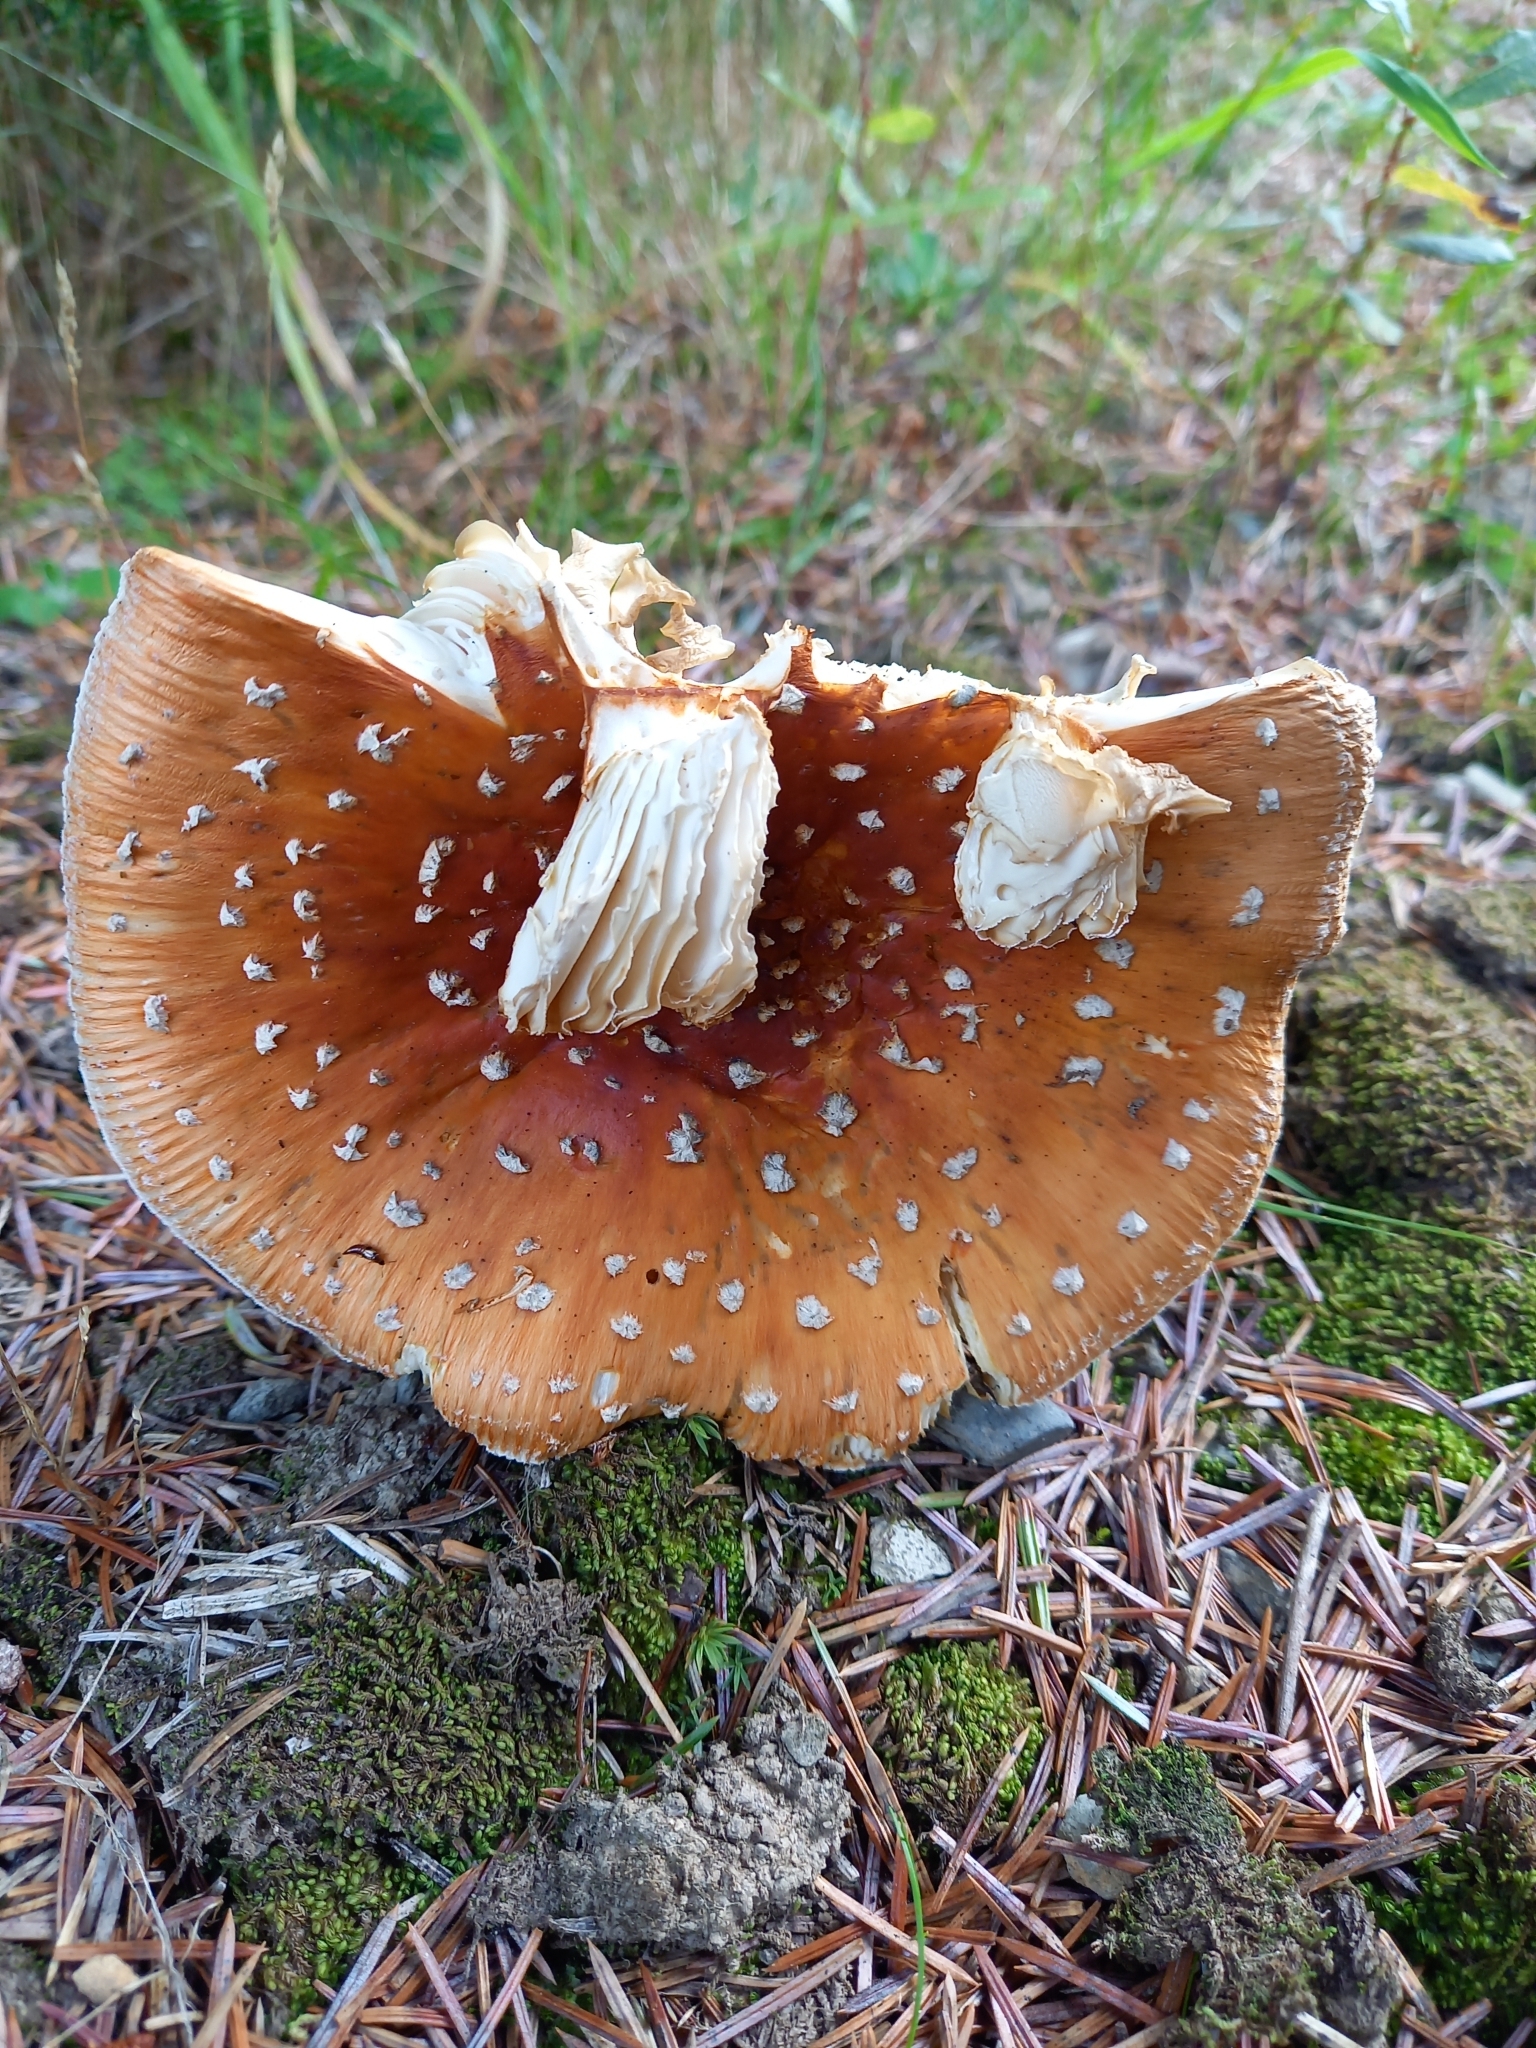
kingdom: Fungi
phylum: Basidiomycota
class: Agaricomycetes
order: Agaricales
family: Amanitaceae
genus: Amanita
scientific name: Amanita muscaria
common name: Fly agaric
